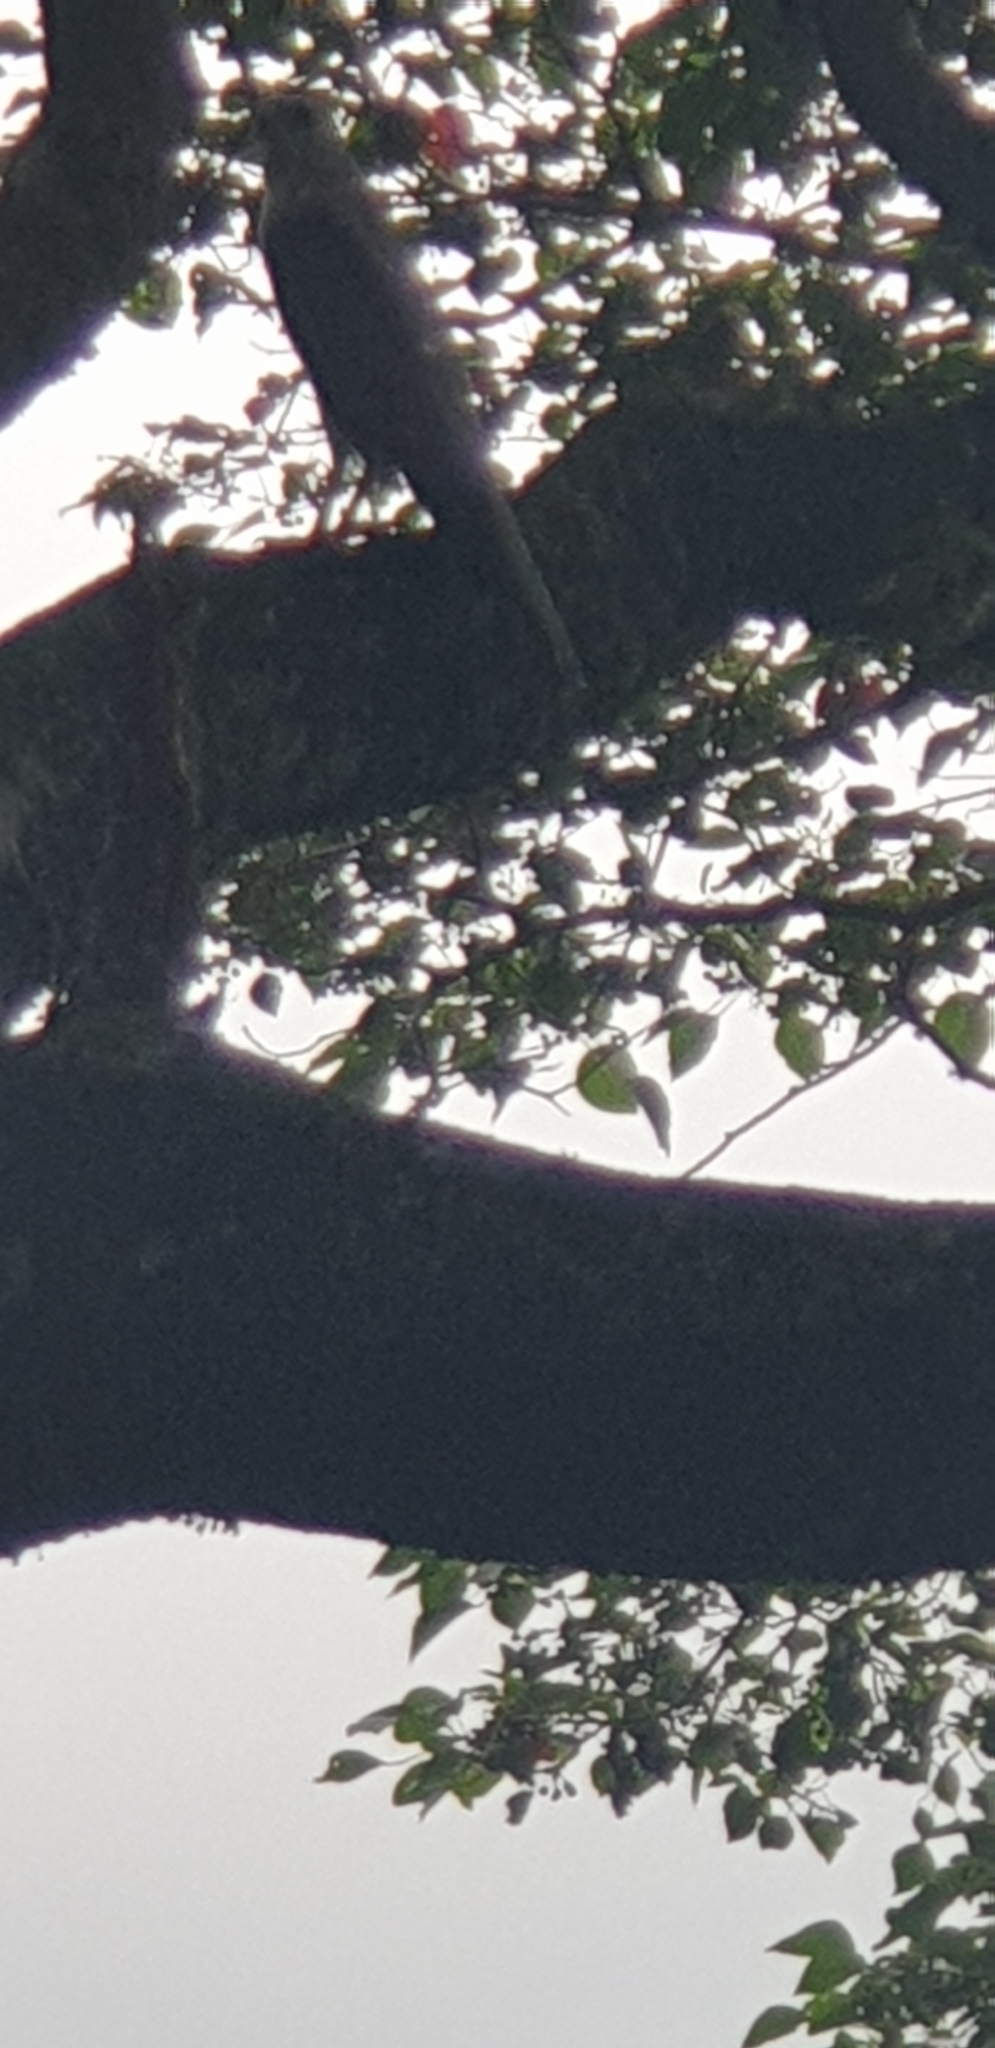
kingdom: Animalia
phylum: Chordata
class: Aves
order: Accipitriformes
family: Accipitridae
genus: Accipiter
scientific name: Accipiter novaehollandiae
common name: Grey goshawk
